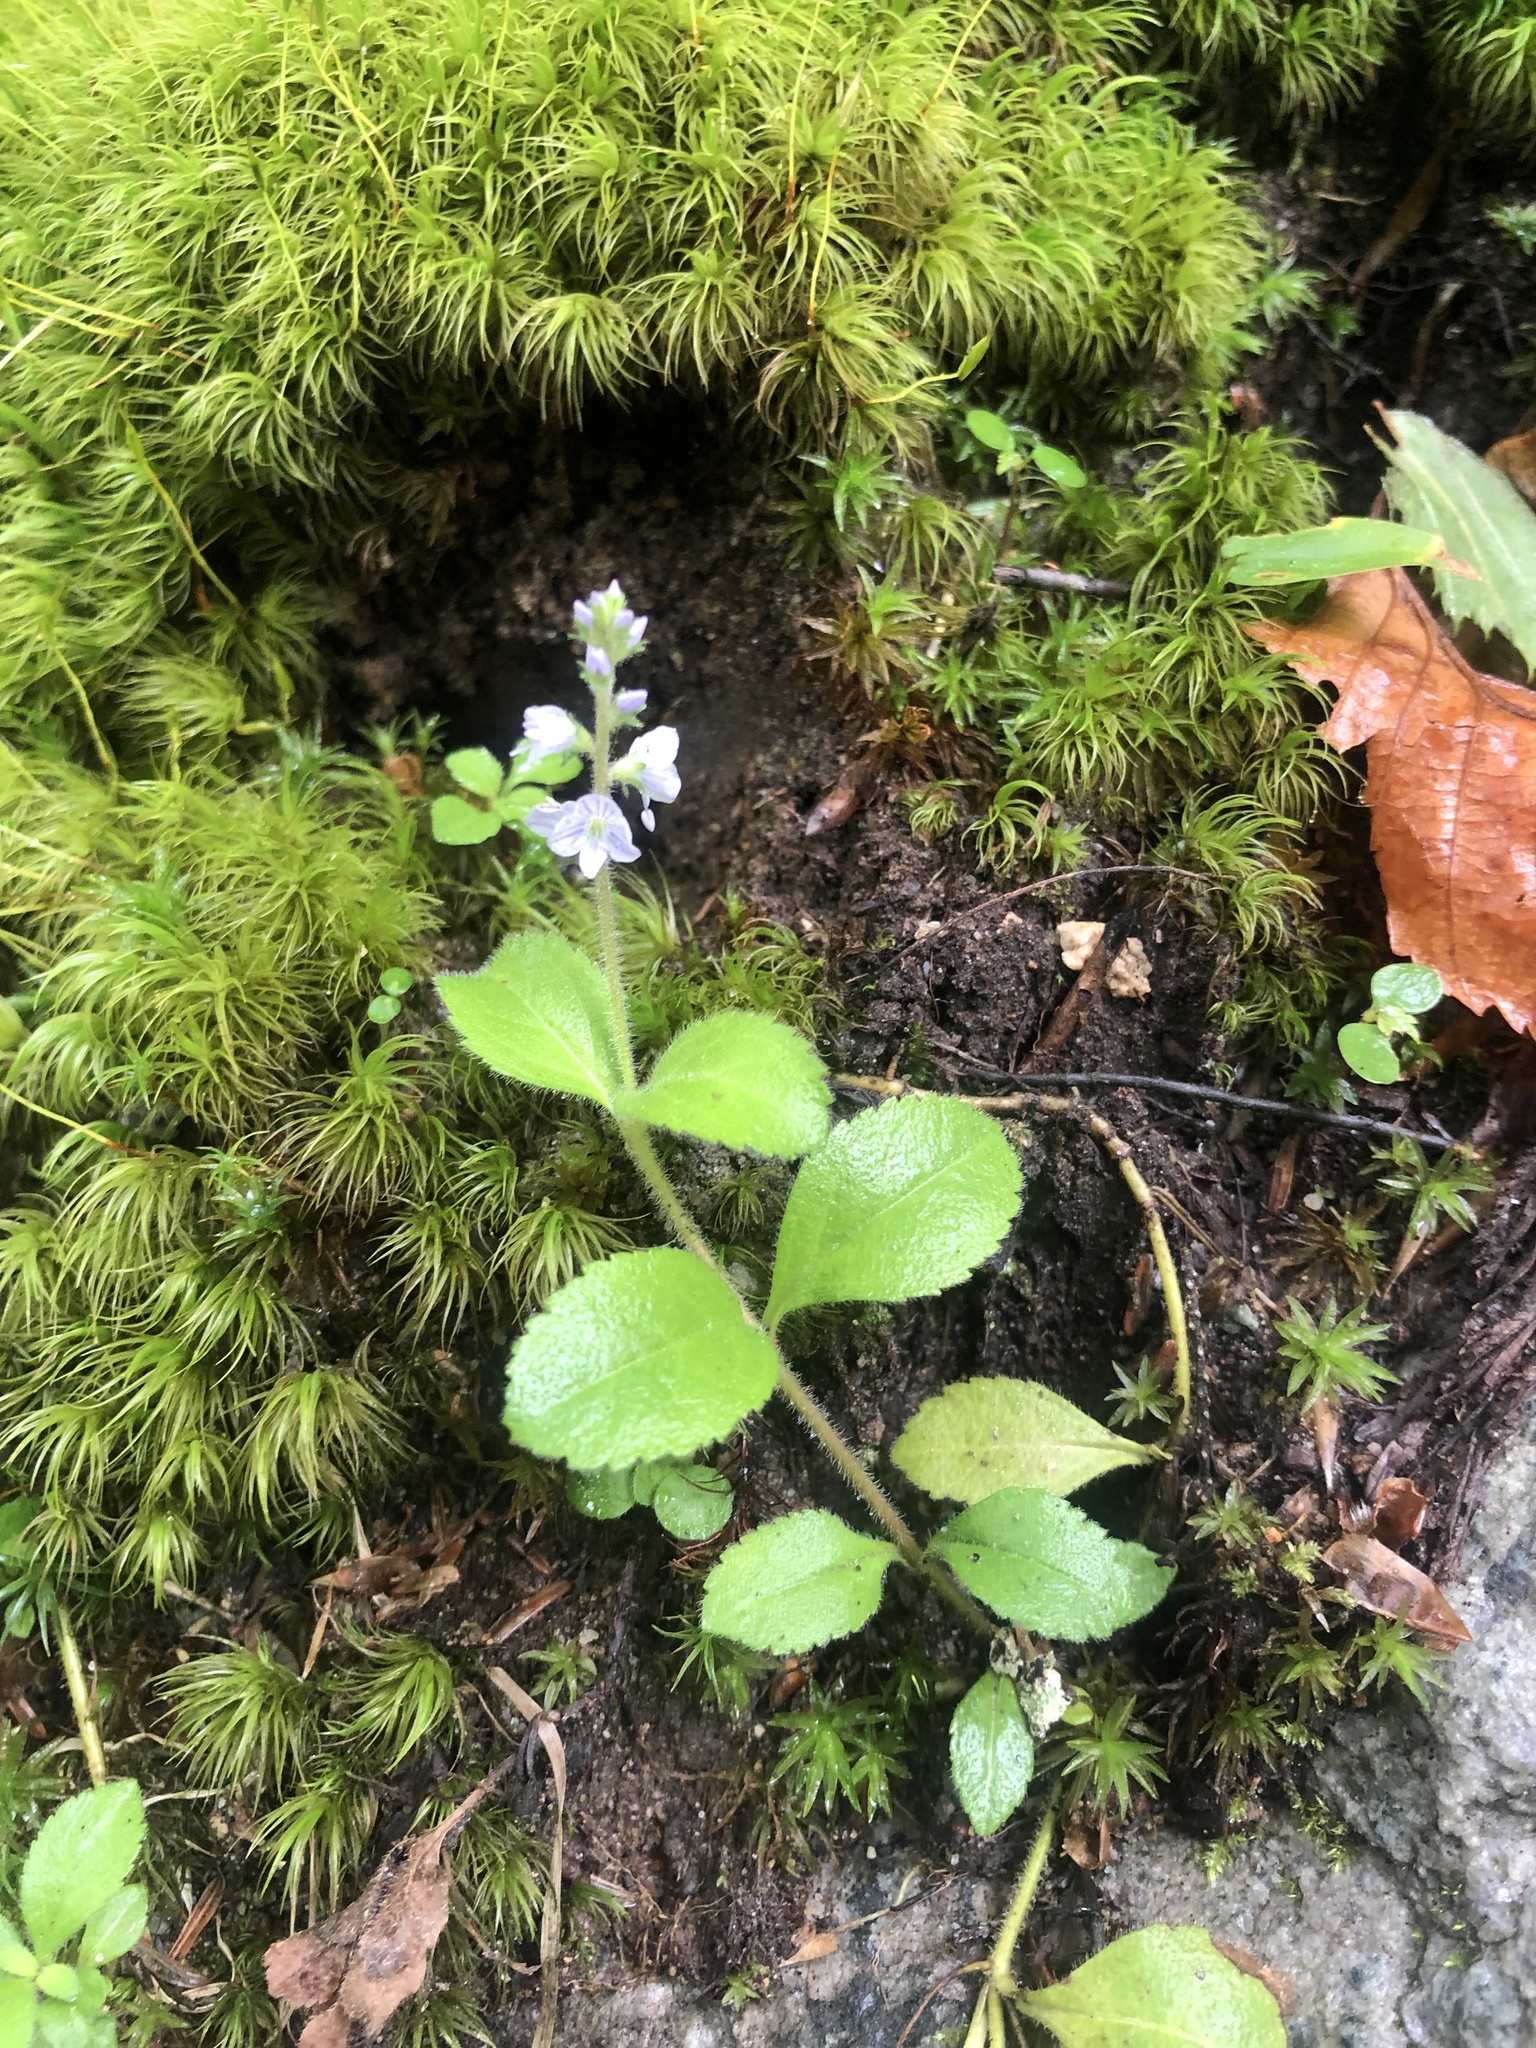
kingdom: Plantae
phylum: Tracheophyta
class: Magnoliopsida
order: Lamiales
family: Plantaginaceae
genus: Veronica
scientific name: Veronica officinalis
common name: Common speedwell
